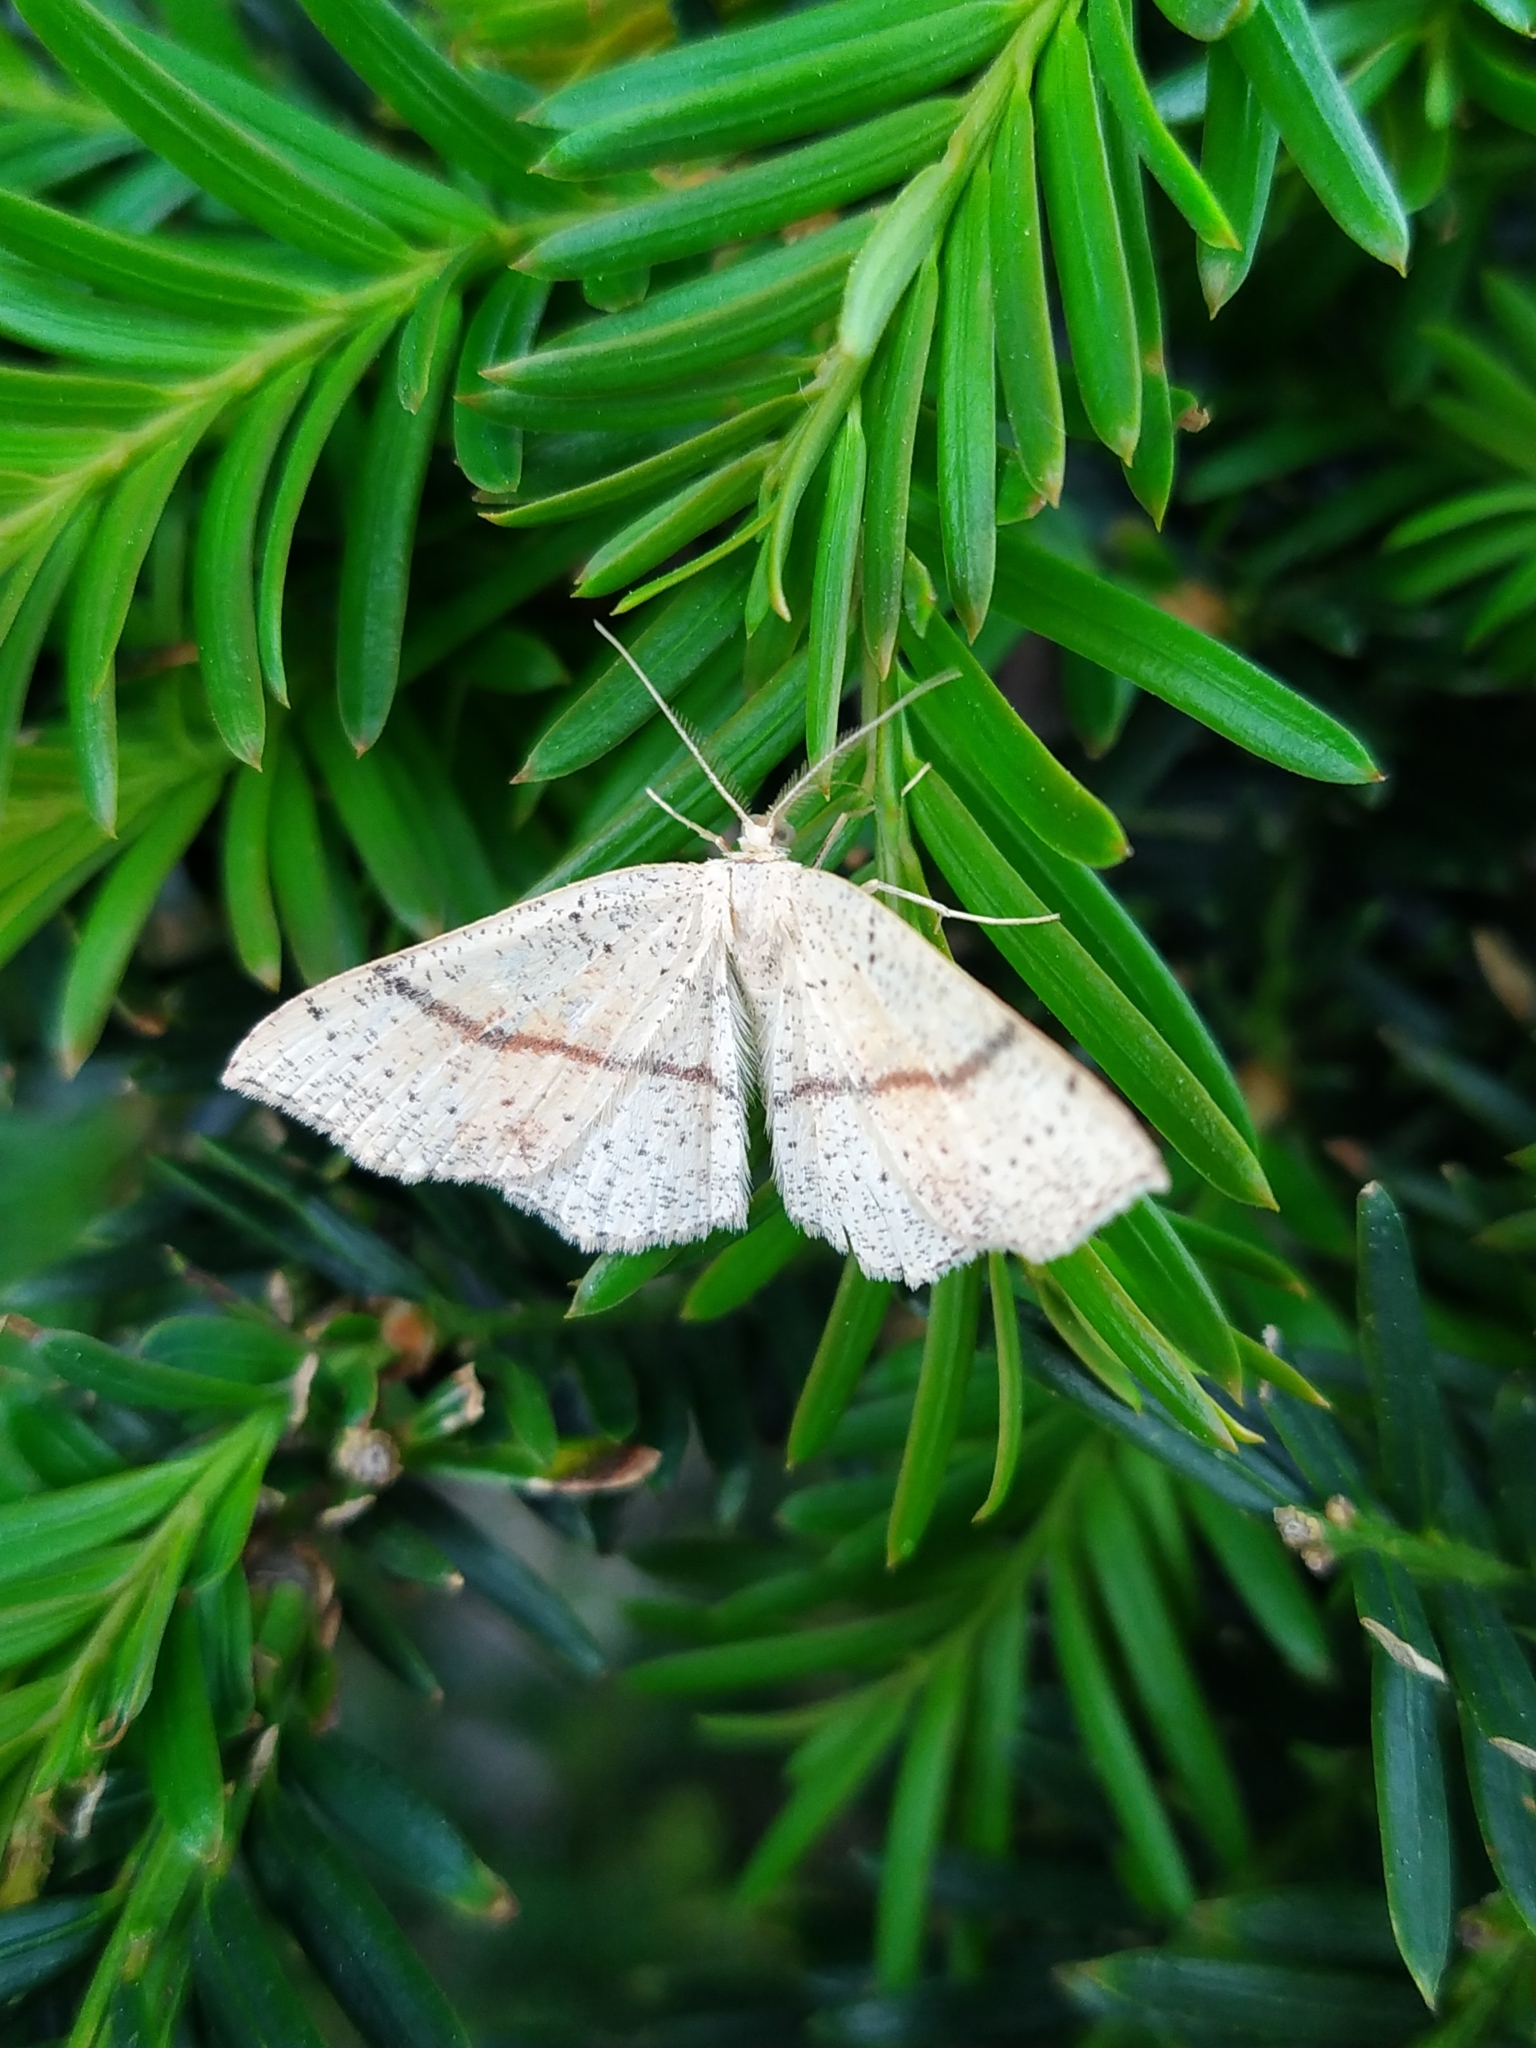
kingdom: Animalia
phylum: Arthropoda
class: Insecta
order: Lepidoptera
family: Geometridae
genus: Cyclophora
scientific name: Cyclophora punctaria
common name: Maiden's blush
